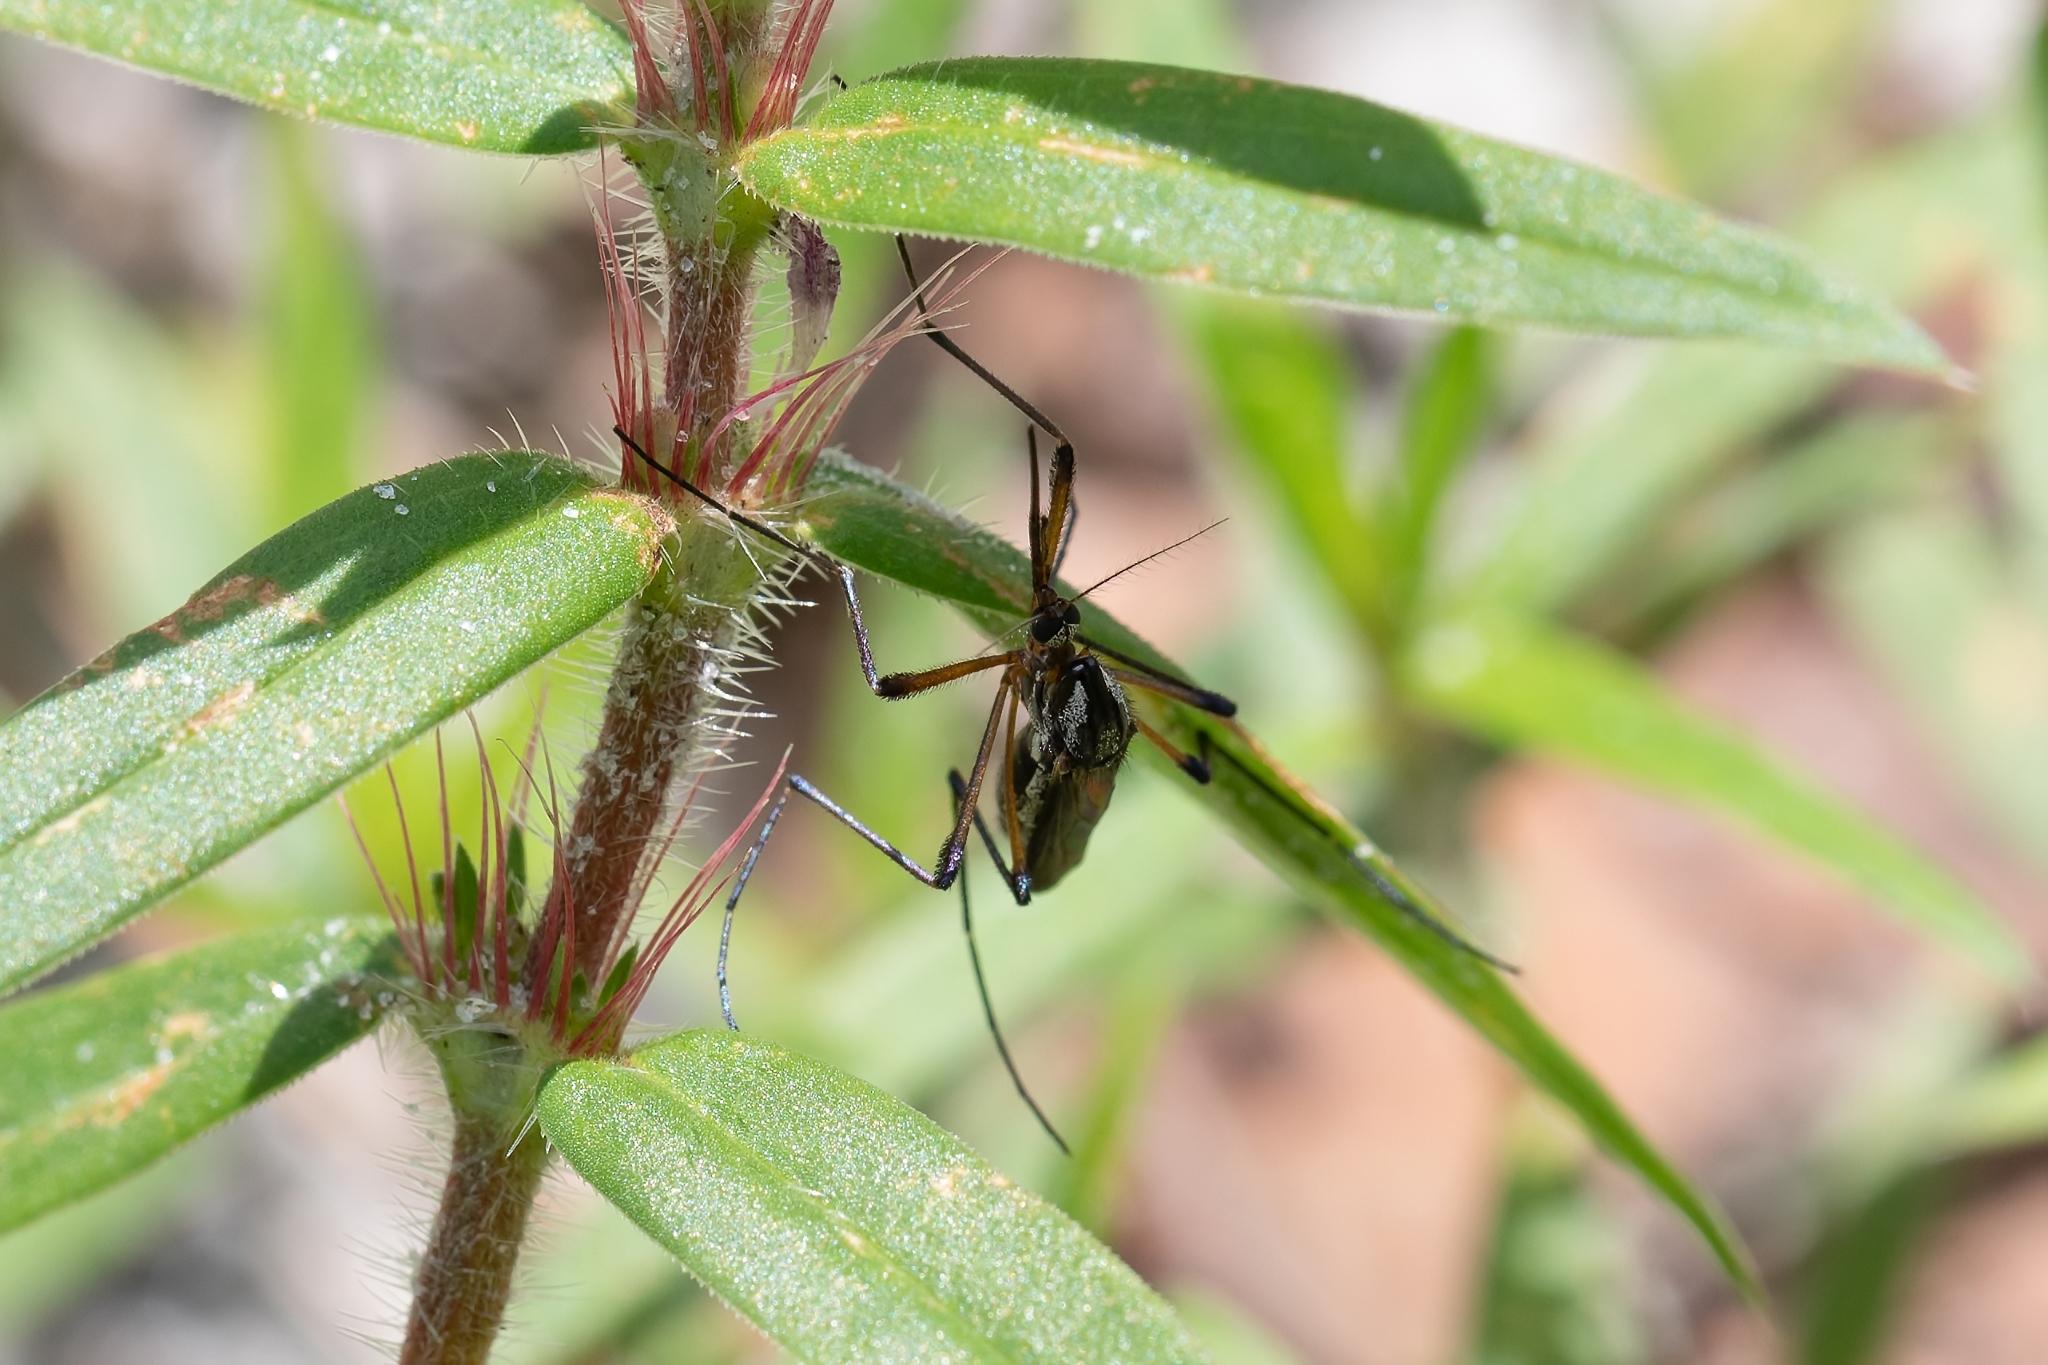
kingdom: Animalia
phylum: Arthropoda
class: Insecta
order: Diptera
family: Culicidae
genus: Psorophora
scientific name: Psorophora howardii
